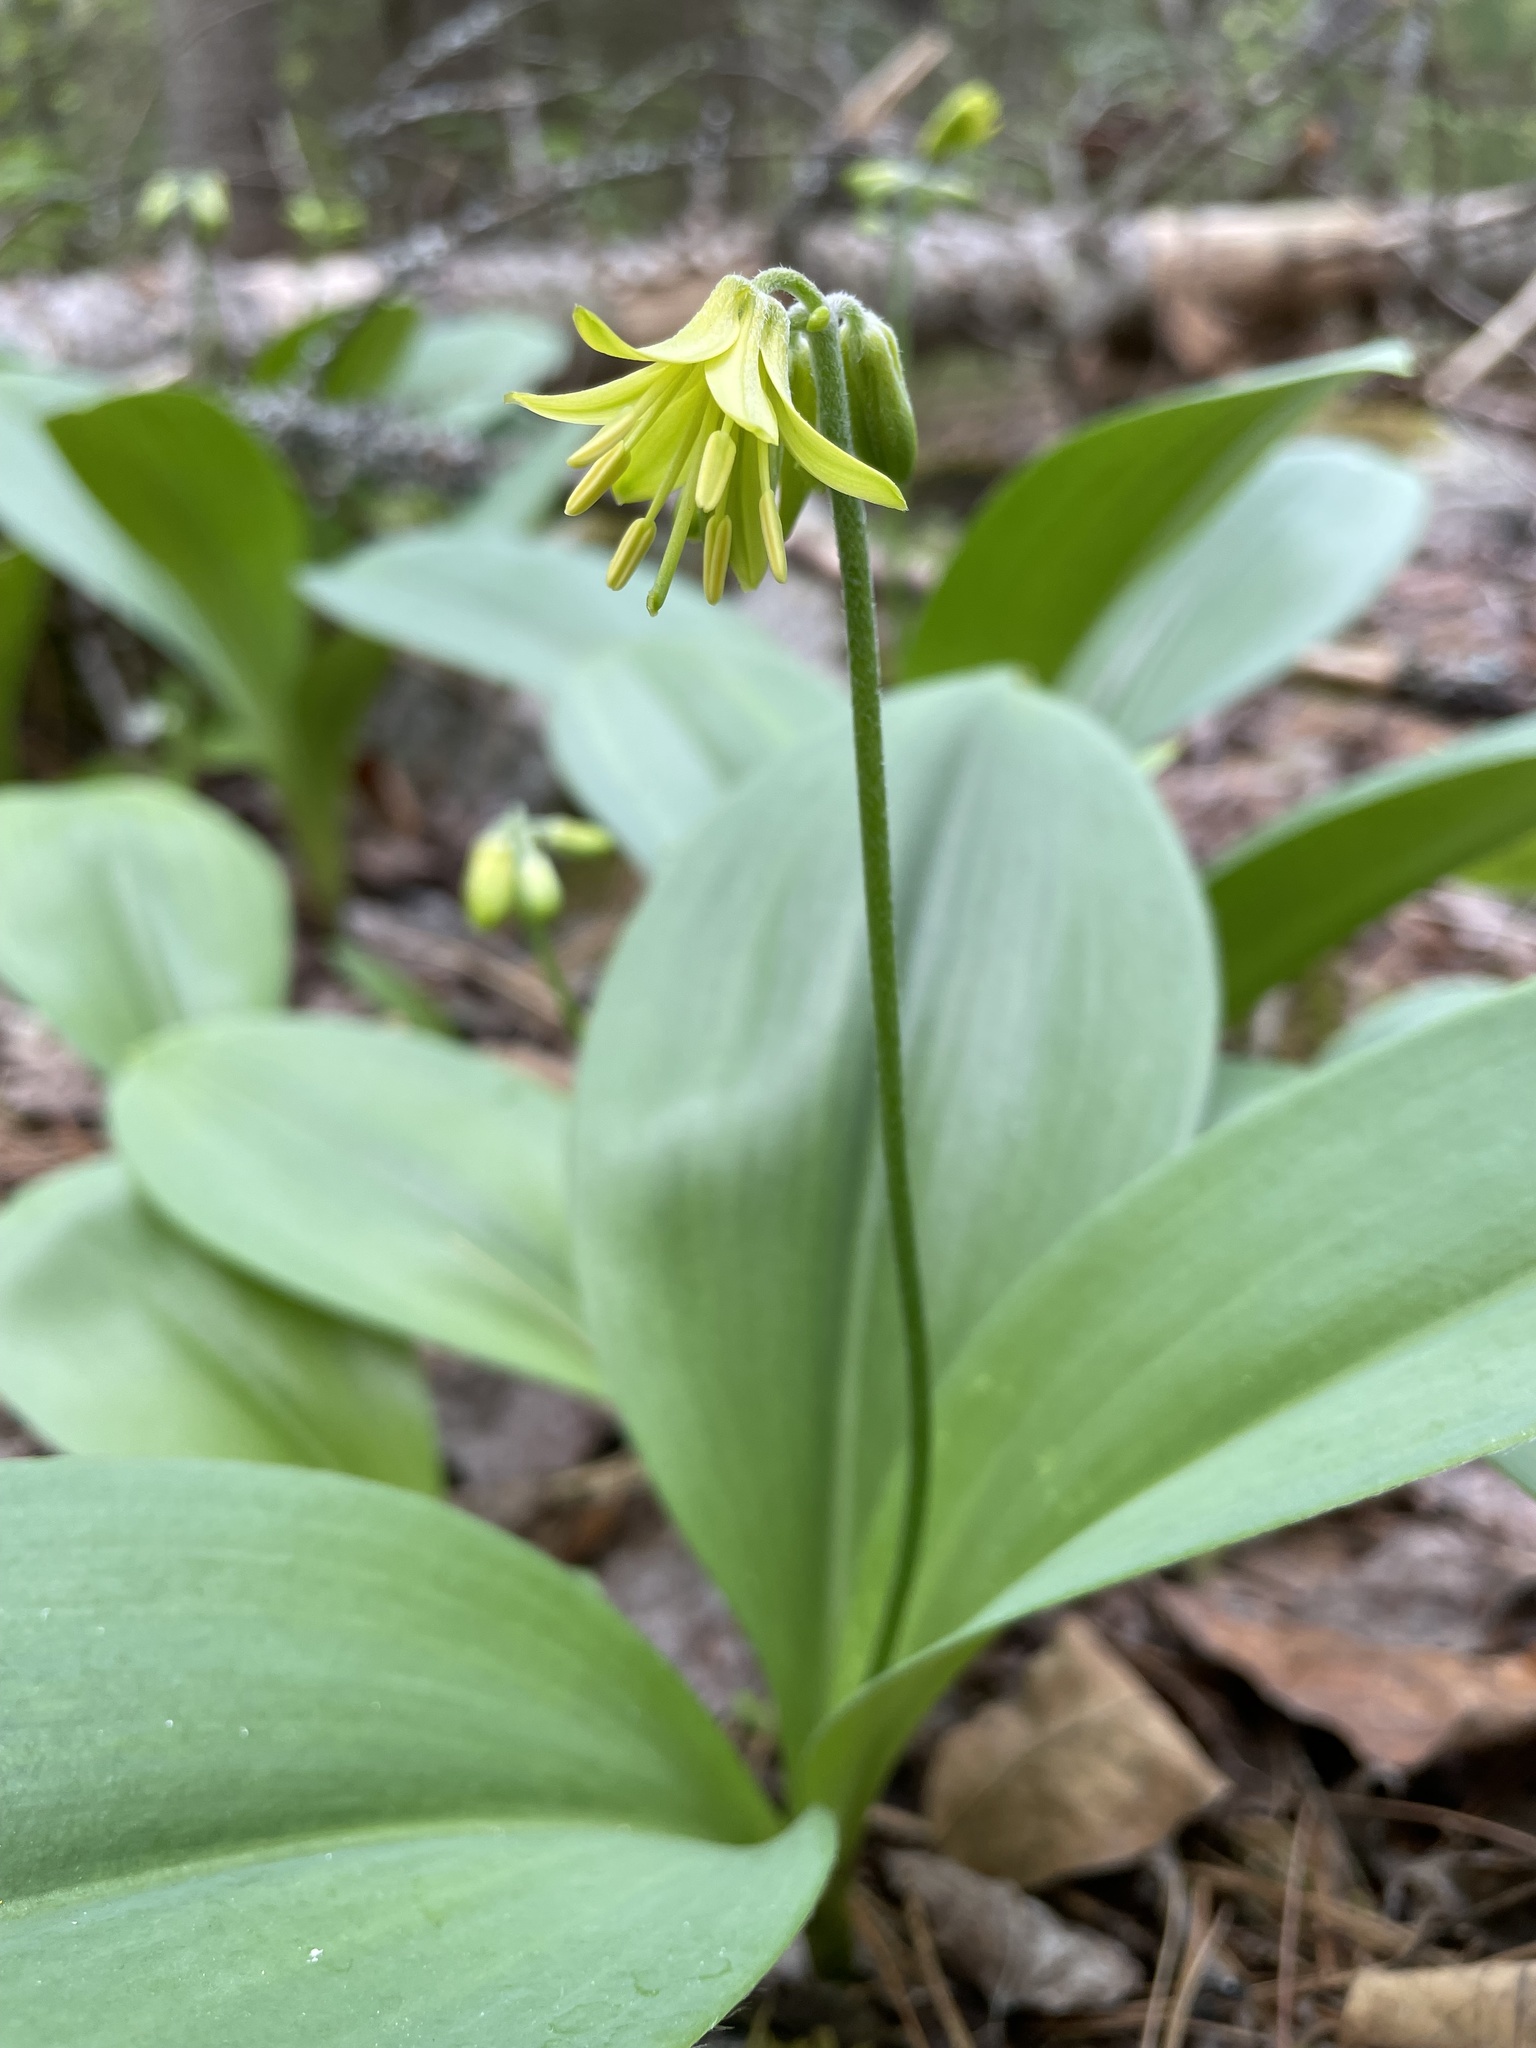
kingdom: Plantae
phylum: Tracheophyta
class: Liliopsida
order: Liliales
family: Liliaceae
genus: Clintonia
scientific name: Clintonia borealis
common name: Yellow clintonia
